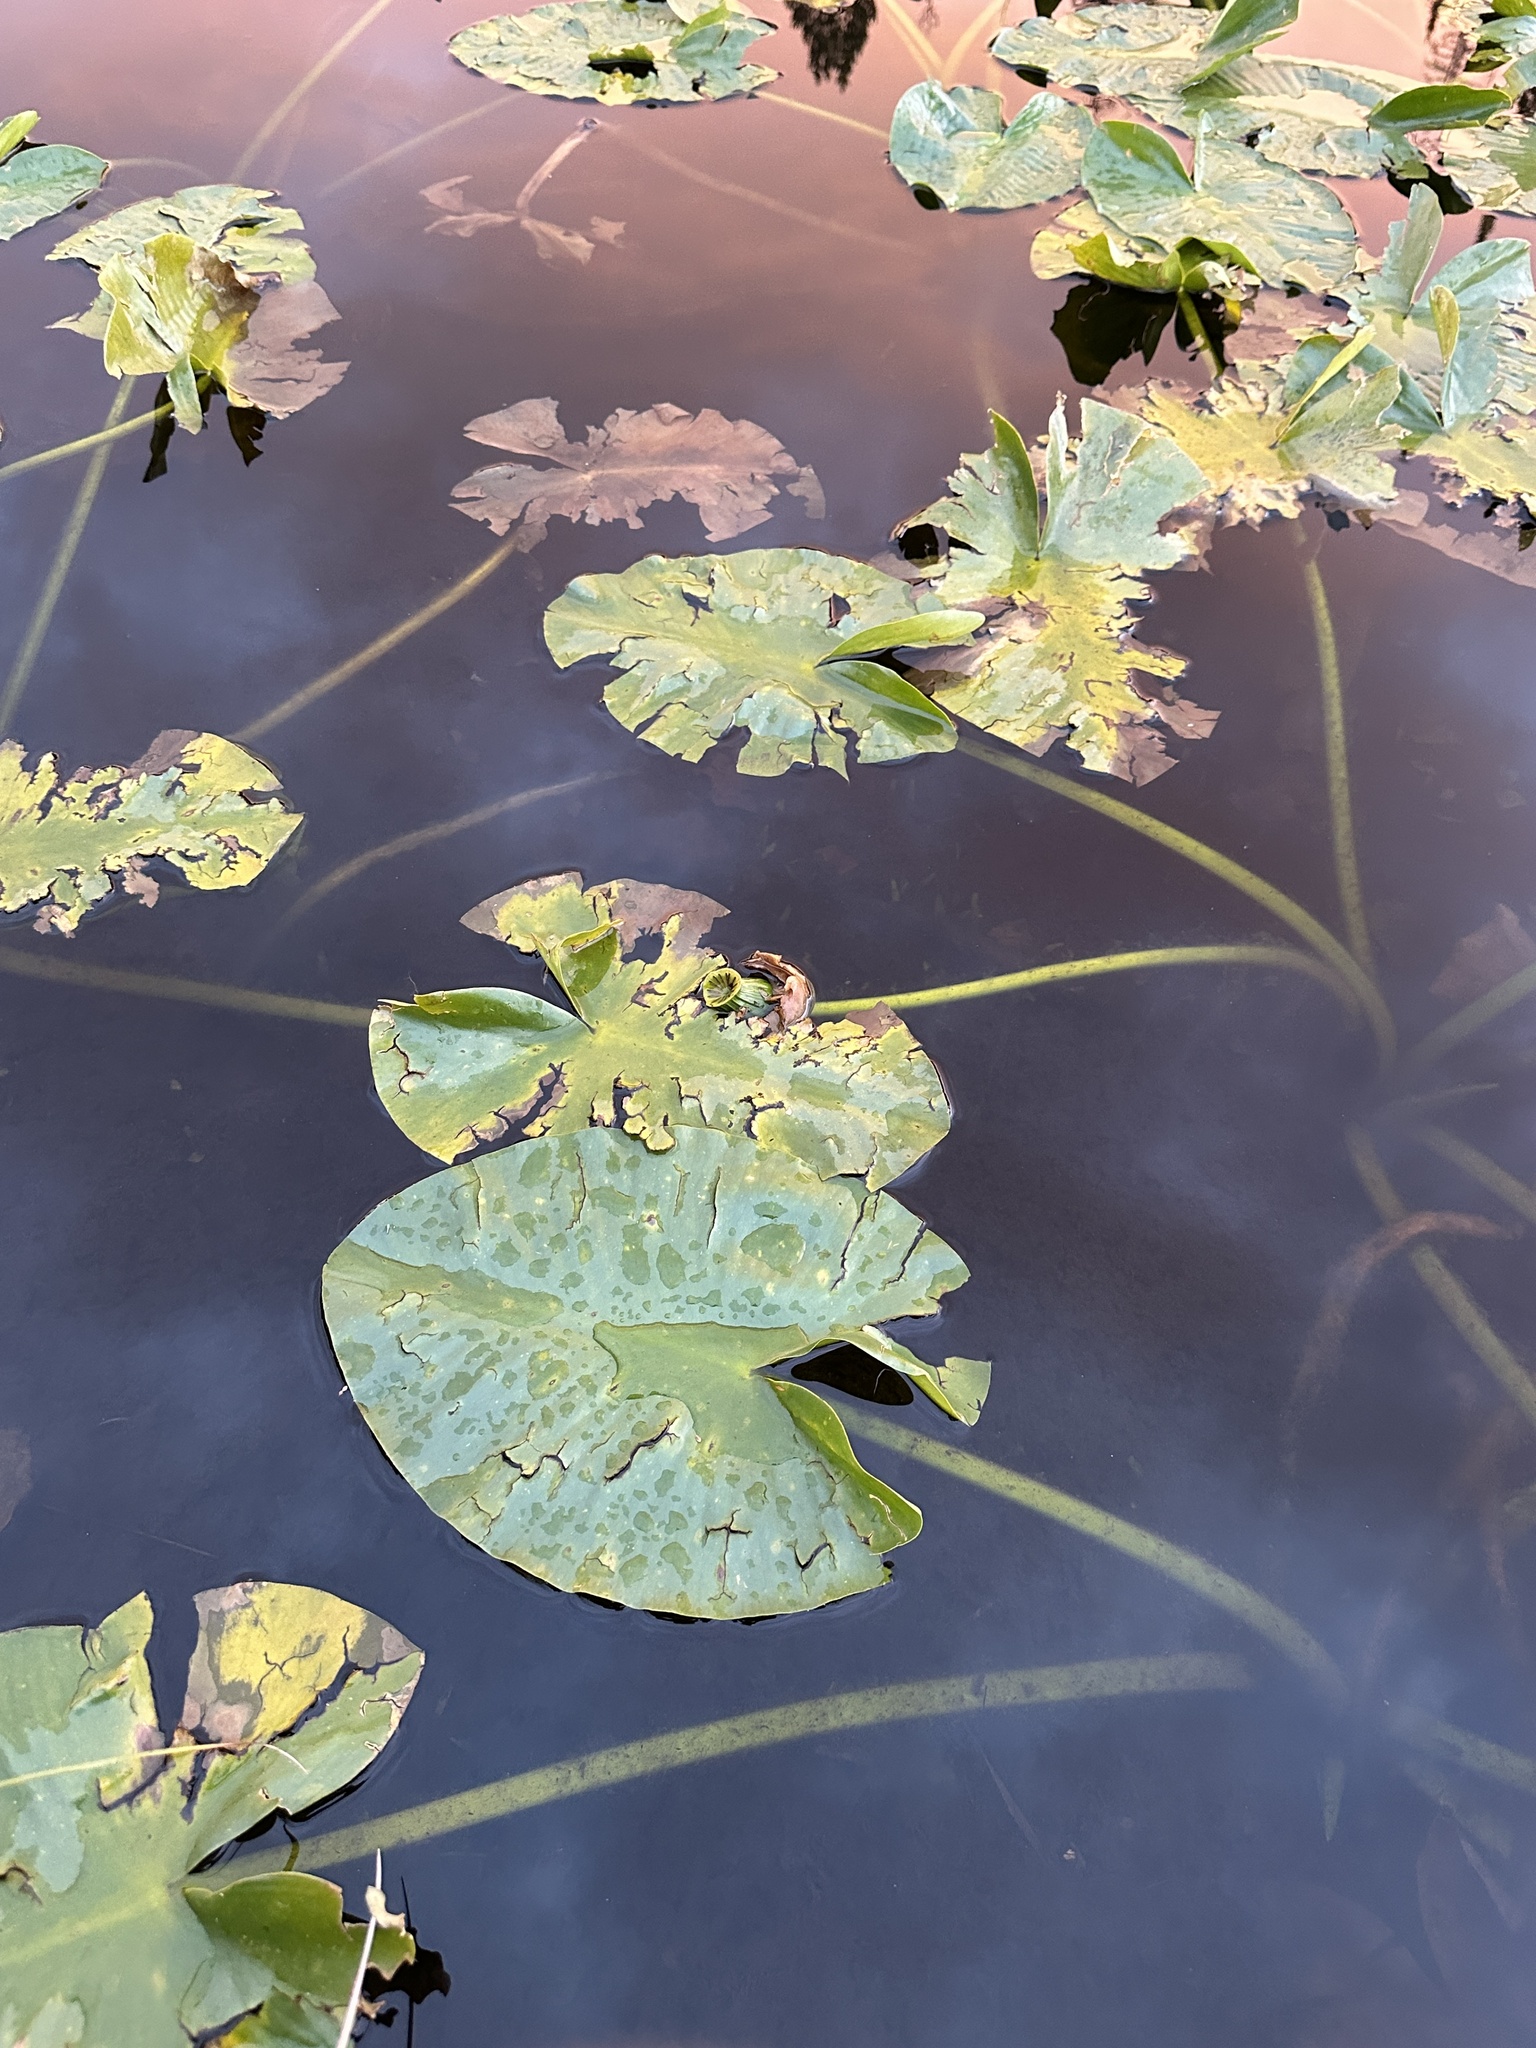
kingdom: Plantae
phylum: Tracheophyta
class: Magnoliopsida
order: Nymphaeales
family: Nymphaeaceae
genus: Nuphar
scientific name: Nuphar polysepala
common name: Rocky mountain cow-lily
